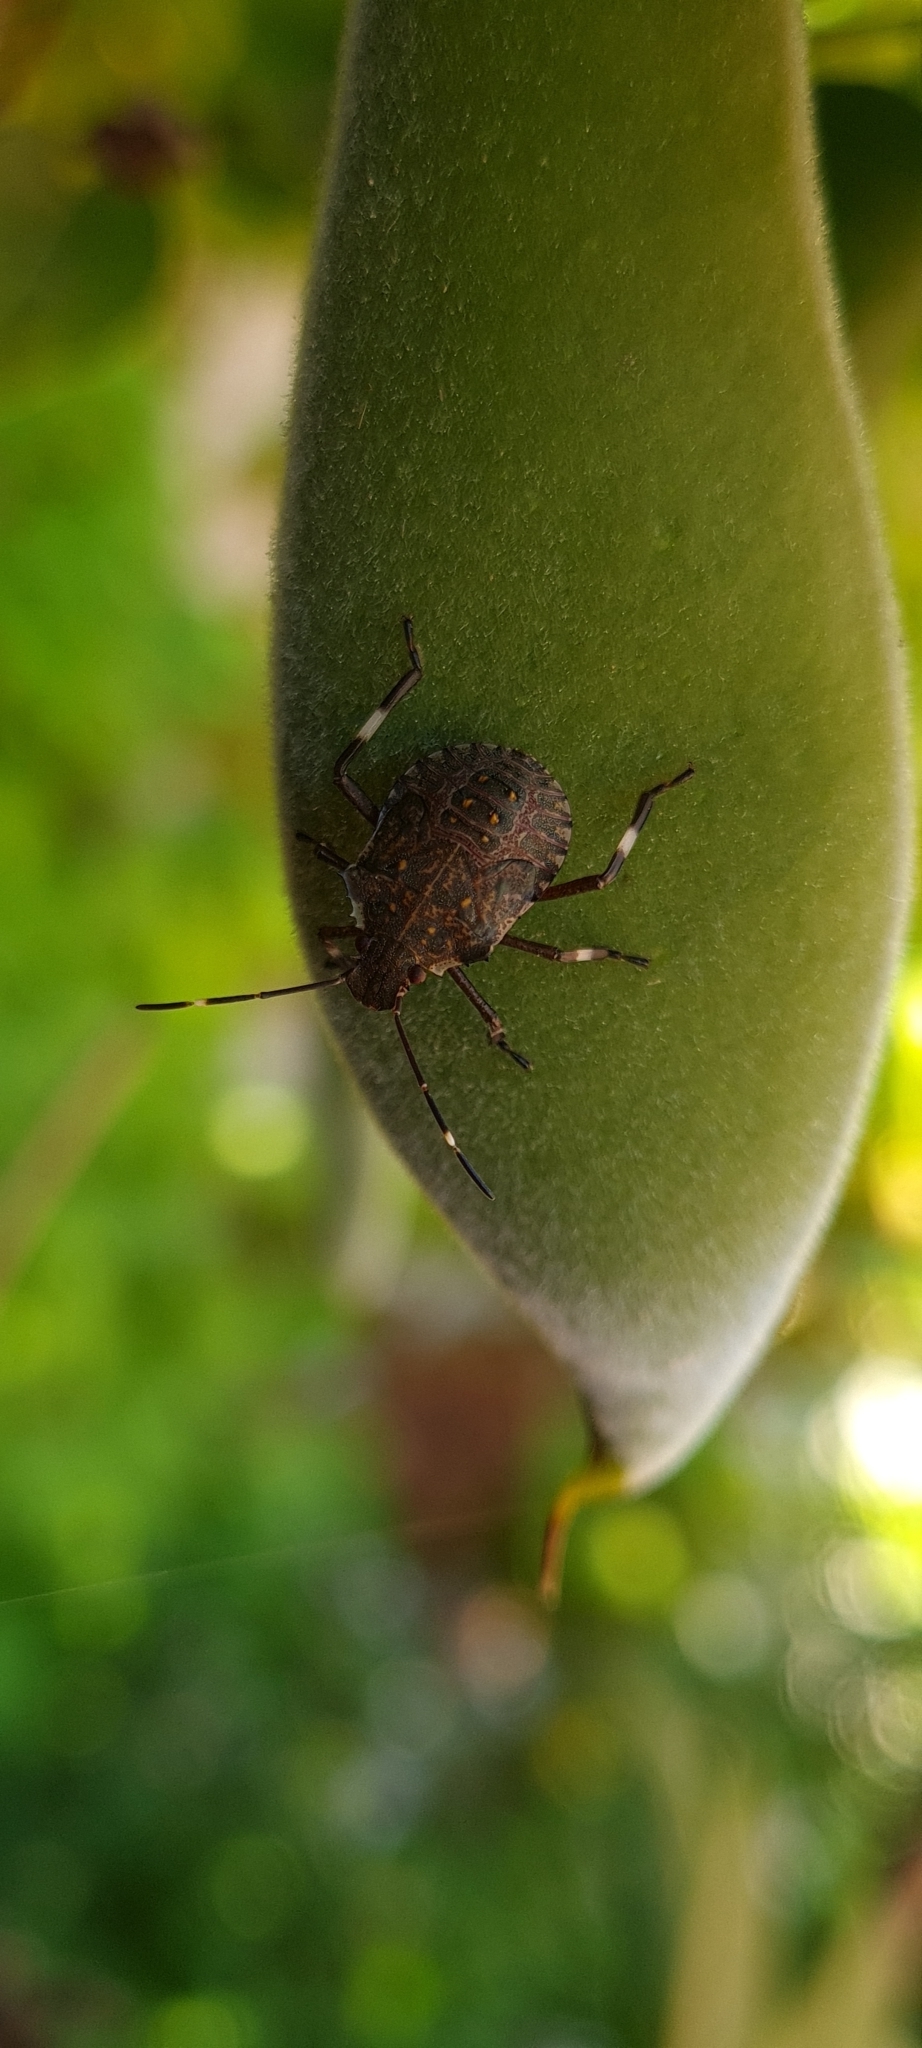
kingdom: Animalia
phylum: Arthropoda
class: Insecta
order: Hemiptera
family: Pentatomidae
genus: Halyomorpha
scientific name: Halyomorpha halys
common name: Brown marmorated stink bug
